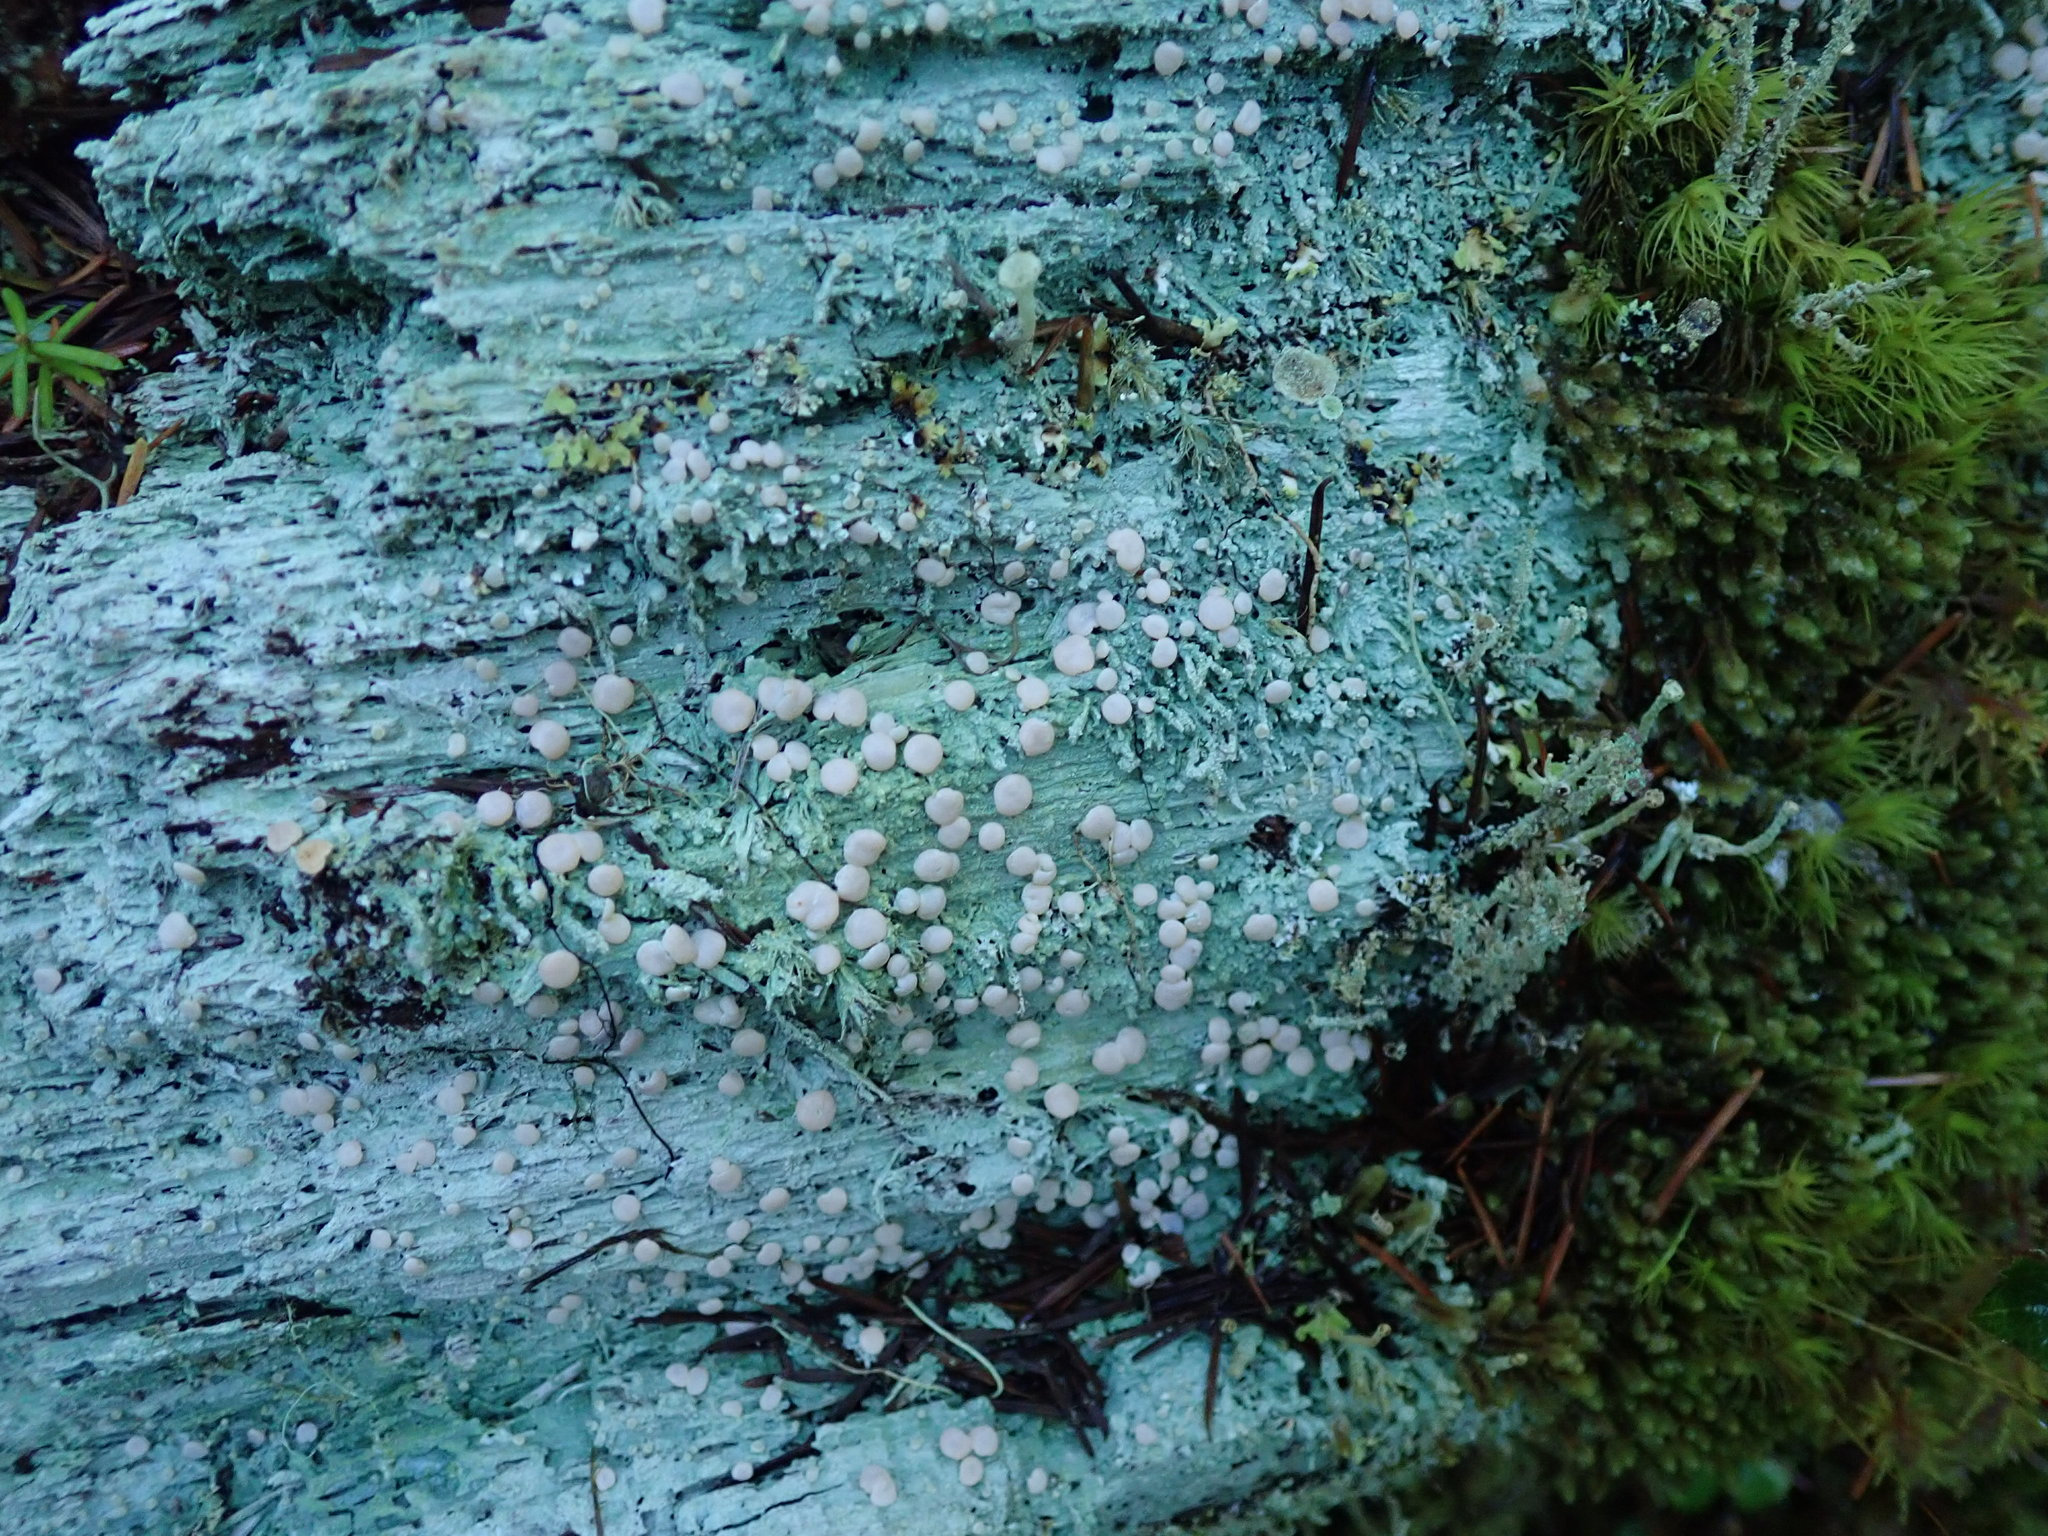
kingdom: Fungi
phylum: Ascomycota
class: Lecanoromycetes
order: Pertusariales
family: Icmadophilaceae
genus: Icmadophila
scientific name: Icmadophila ericetorum
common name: Candy lichen
